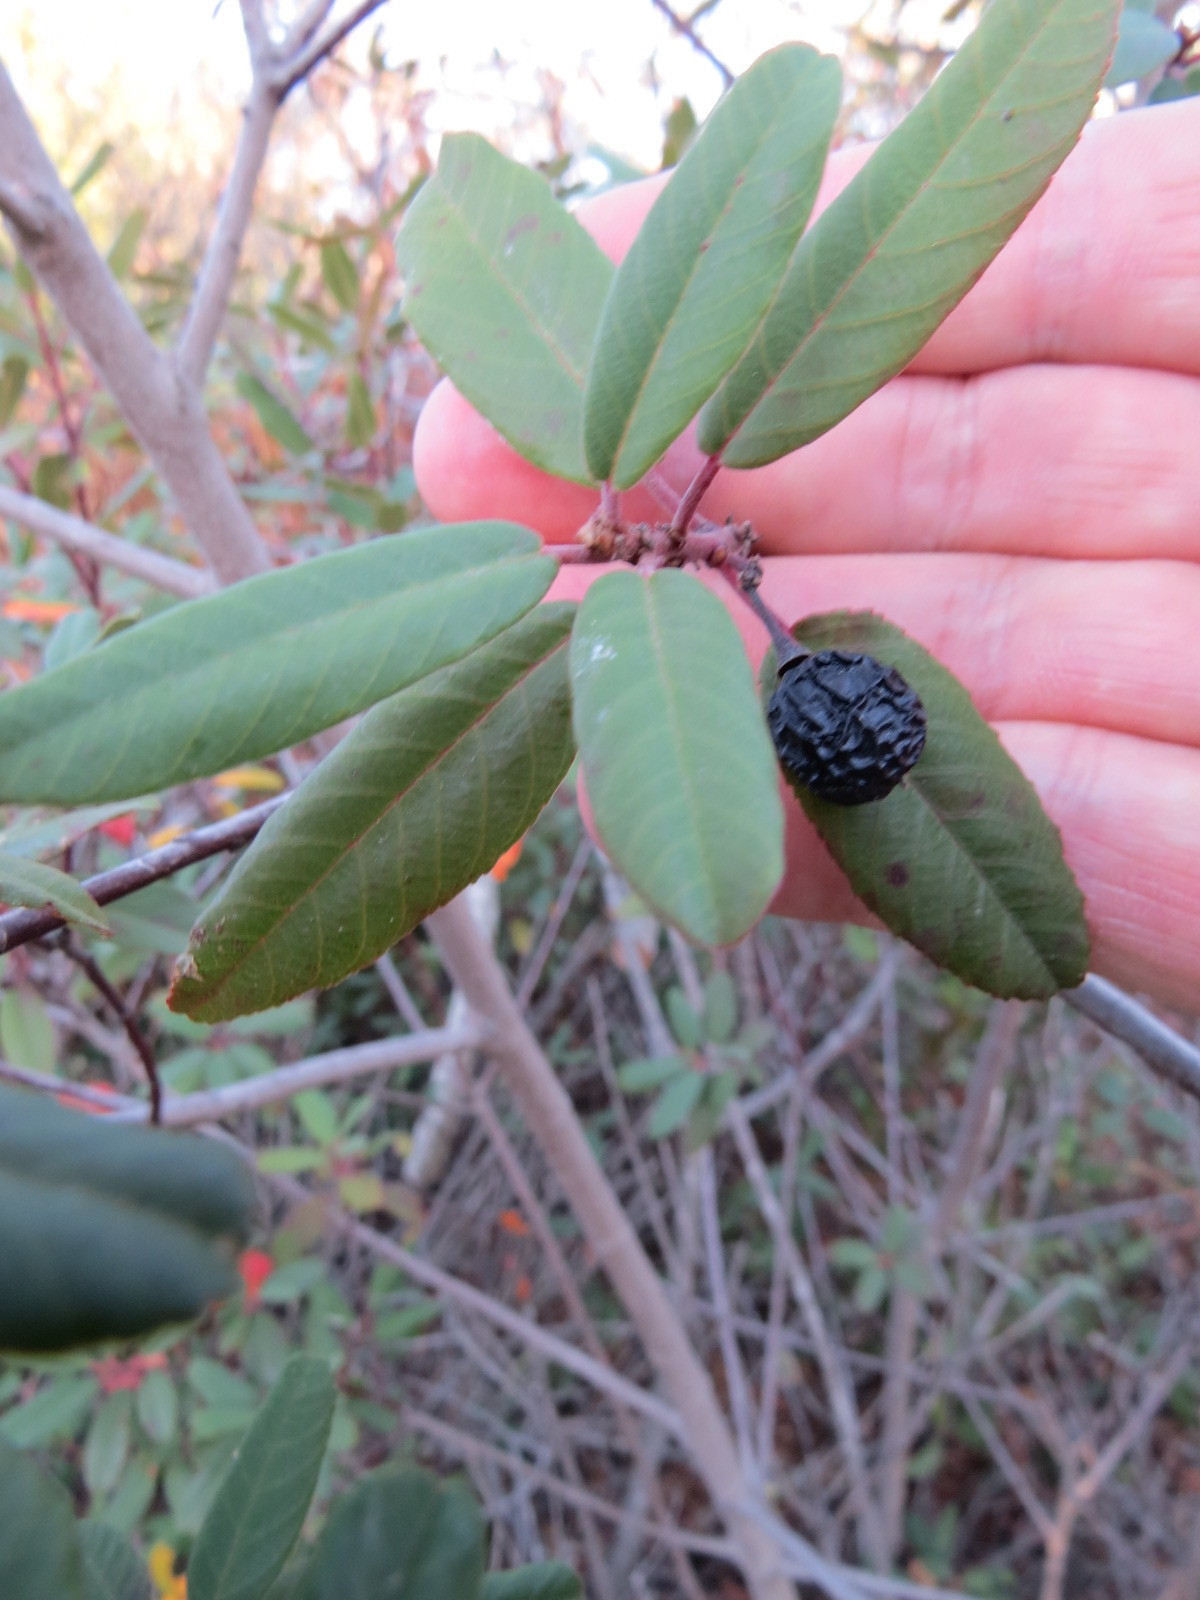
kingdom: Plantae
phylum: Tracheophyta
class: Magnoliopsida
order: Rosales
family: Rhamnaceae
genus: Frangula
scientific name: Frangula californica
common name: California buckthorn
